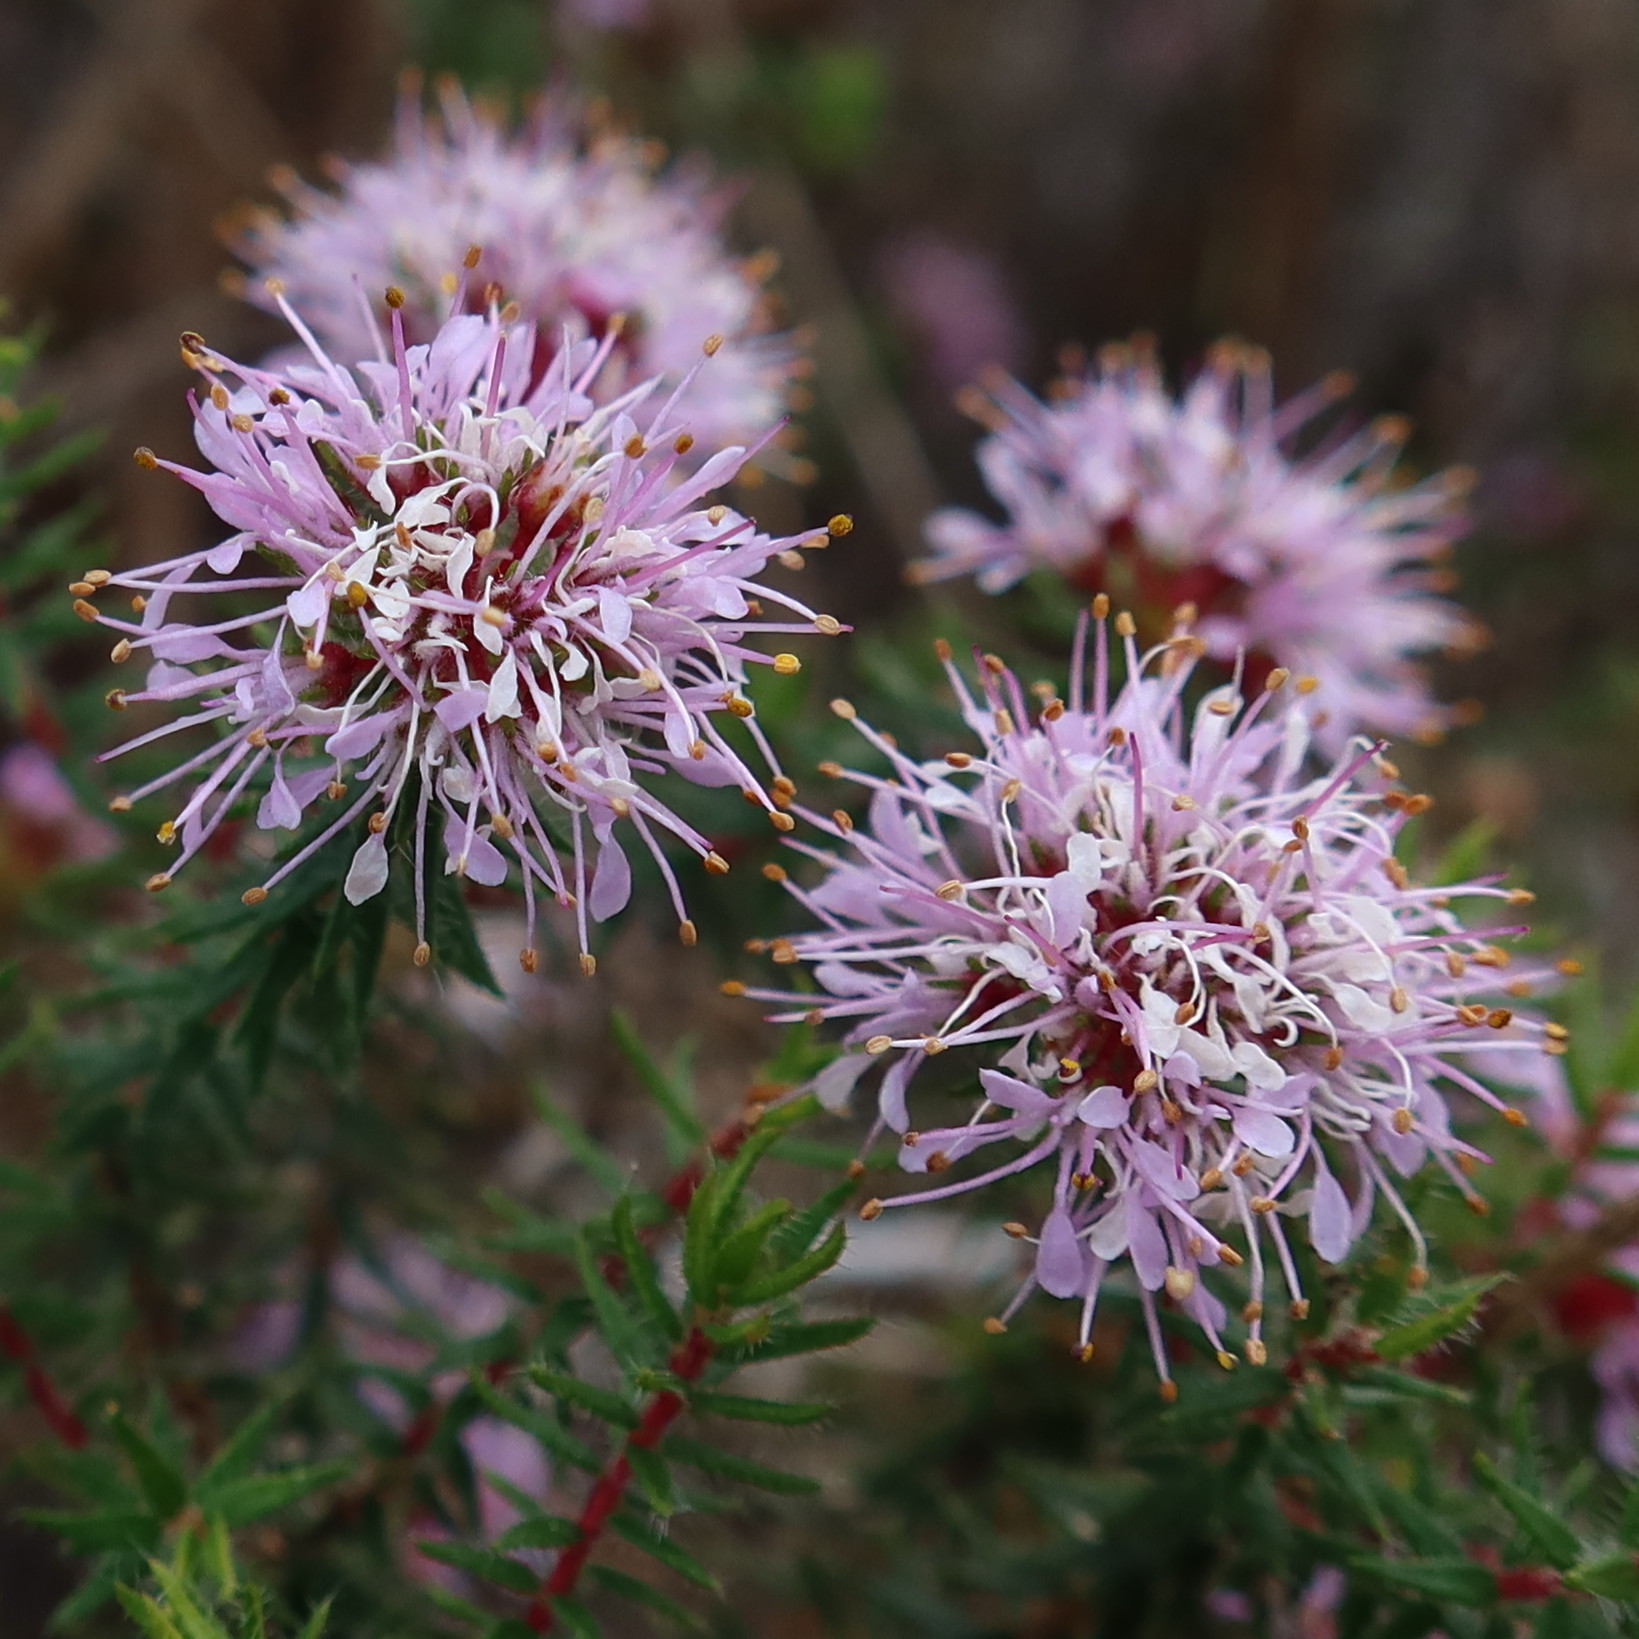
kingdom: Plantae
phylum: Tracheophyta
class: Magnoliopsida
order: Sapindales
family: Rutaceae
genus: Agathosma
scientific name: Agathosma ciliaris
